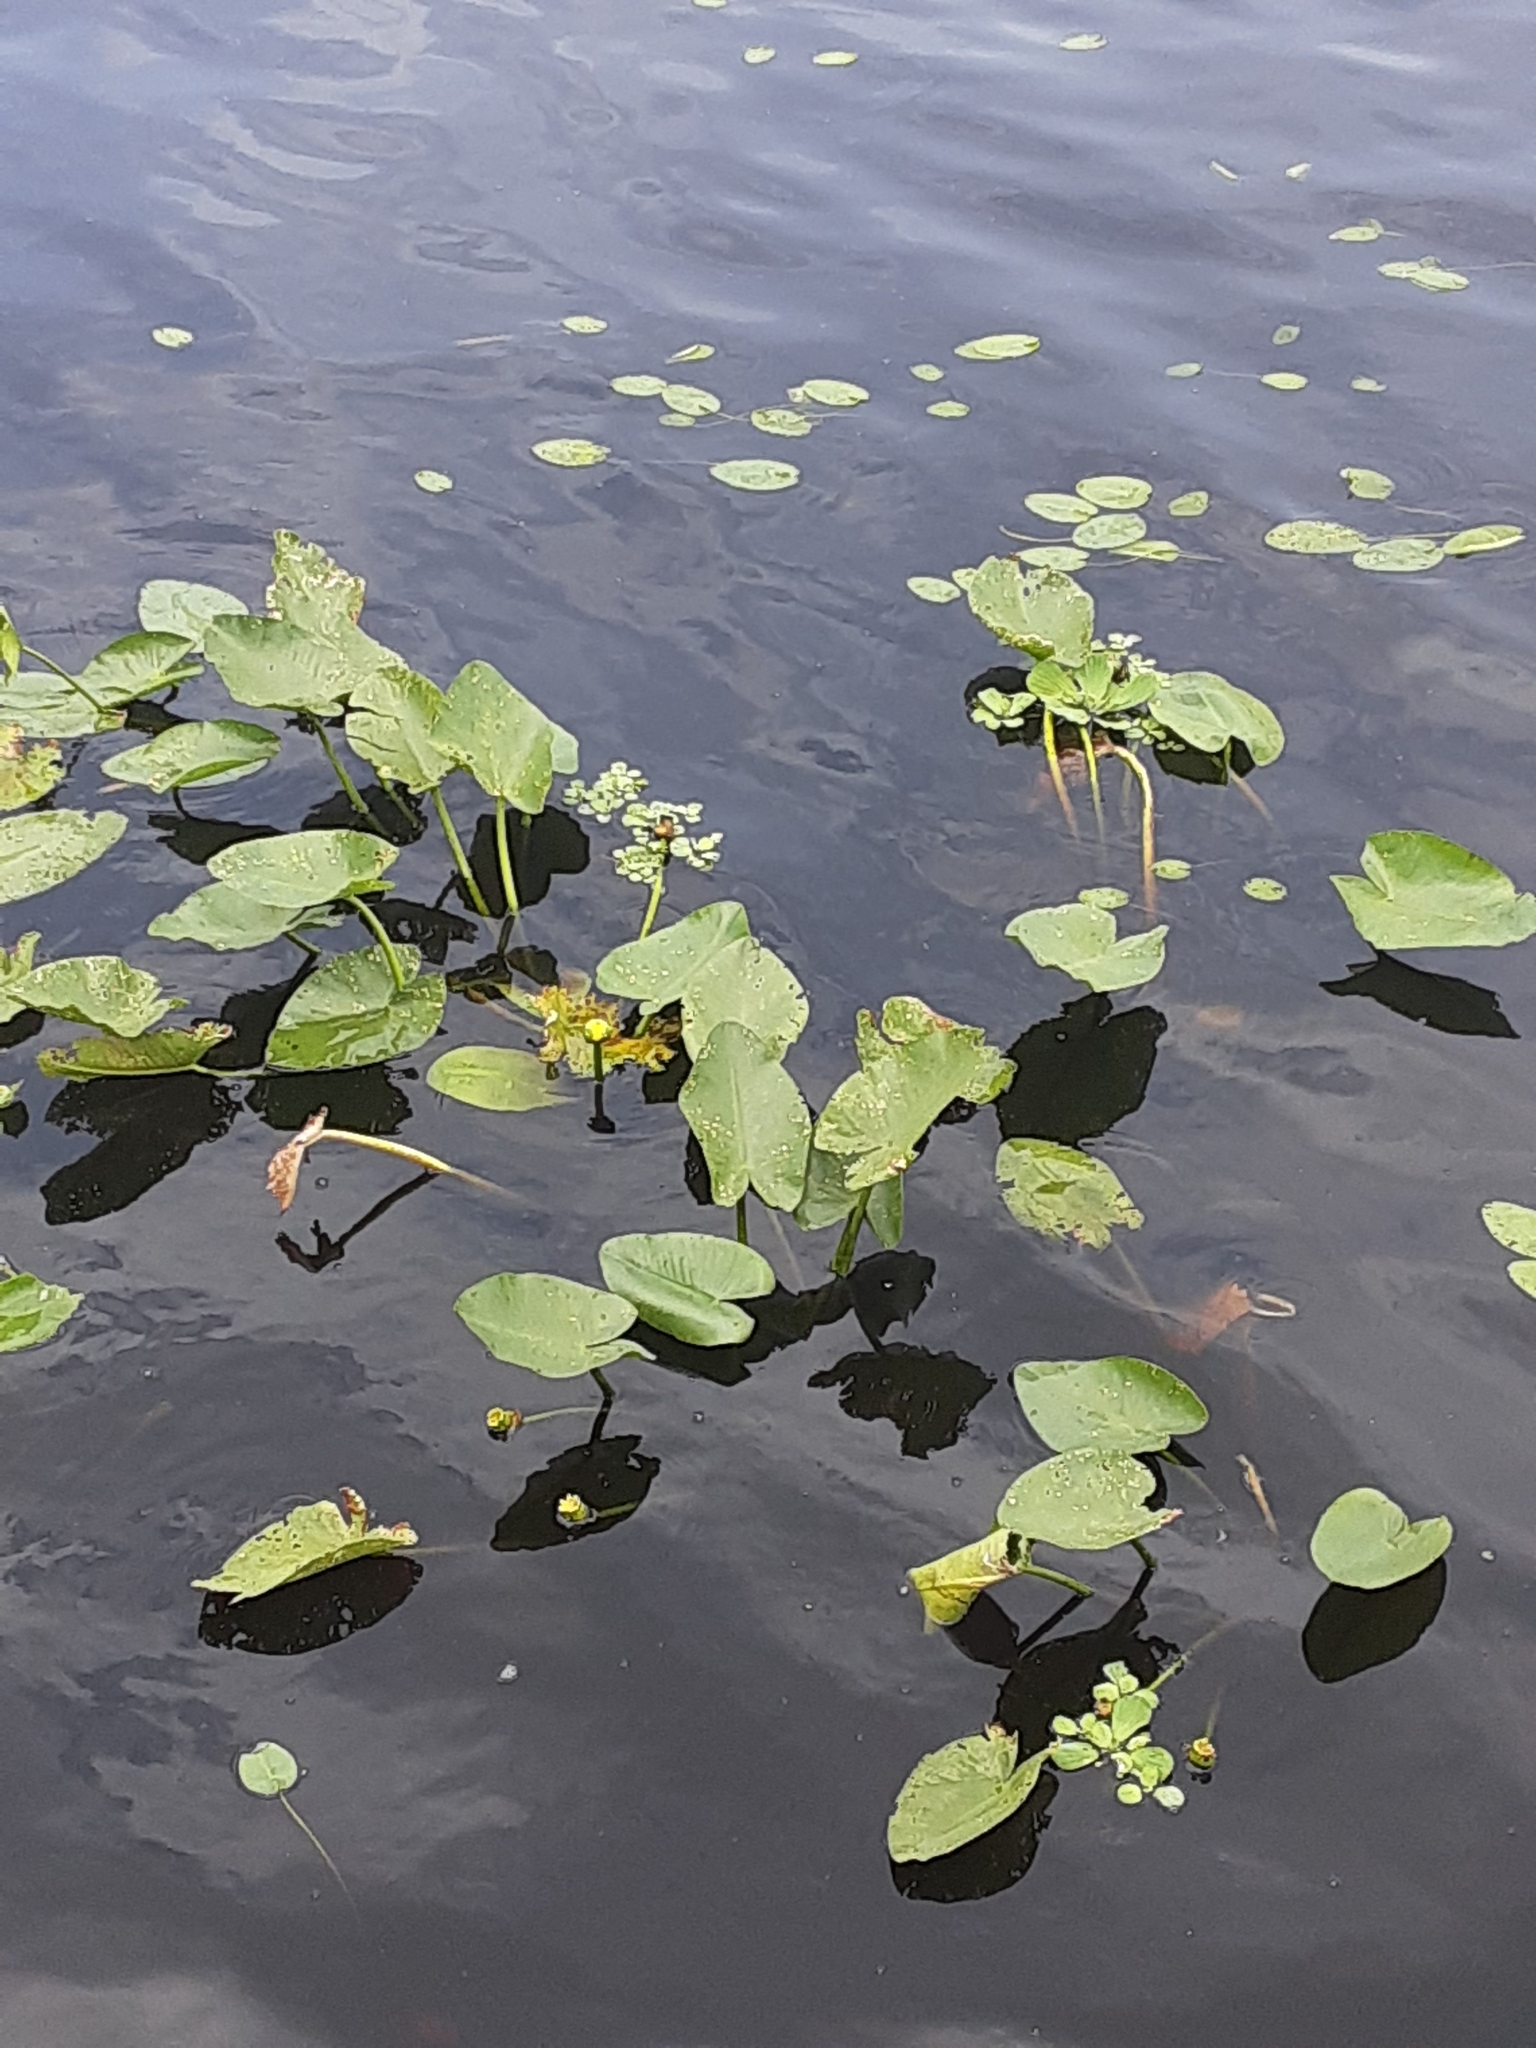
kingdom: Plantae
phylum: Tracheophyta
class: Magnoliopsida
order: Nymphaeales
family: Nymphaeaceae
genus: Nuphar
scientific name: Nuphar advena
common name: Spatter-dock
